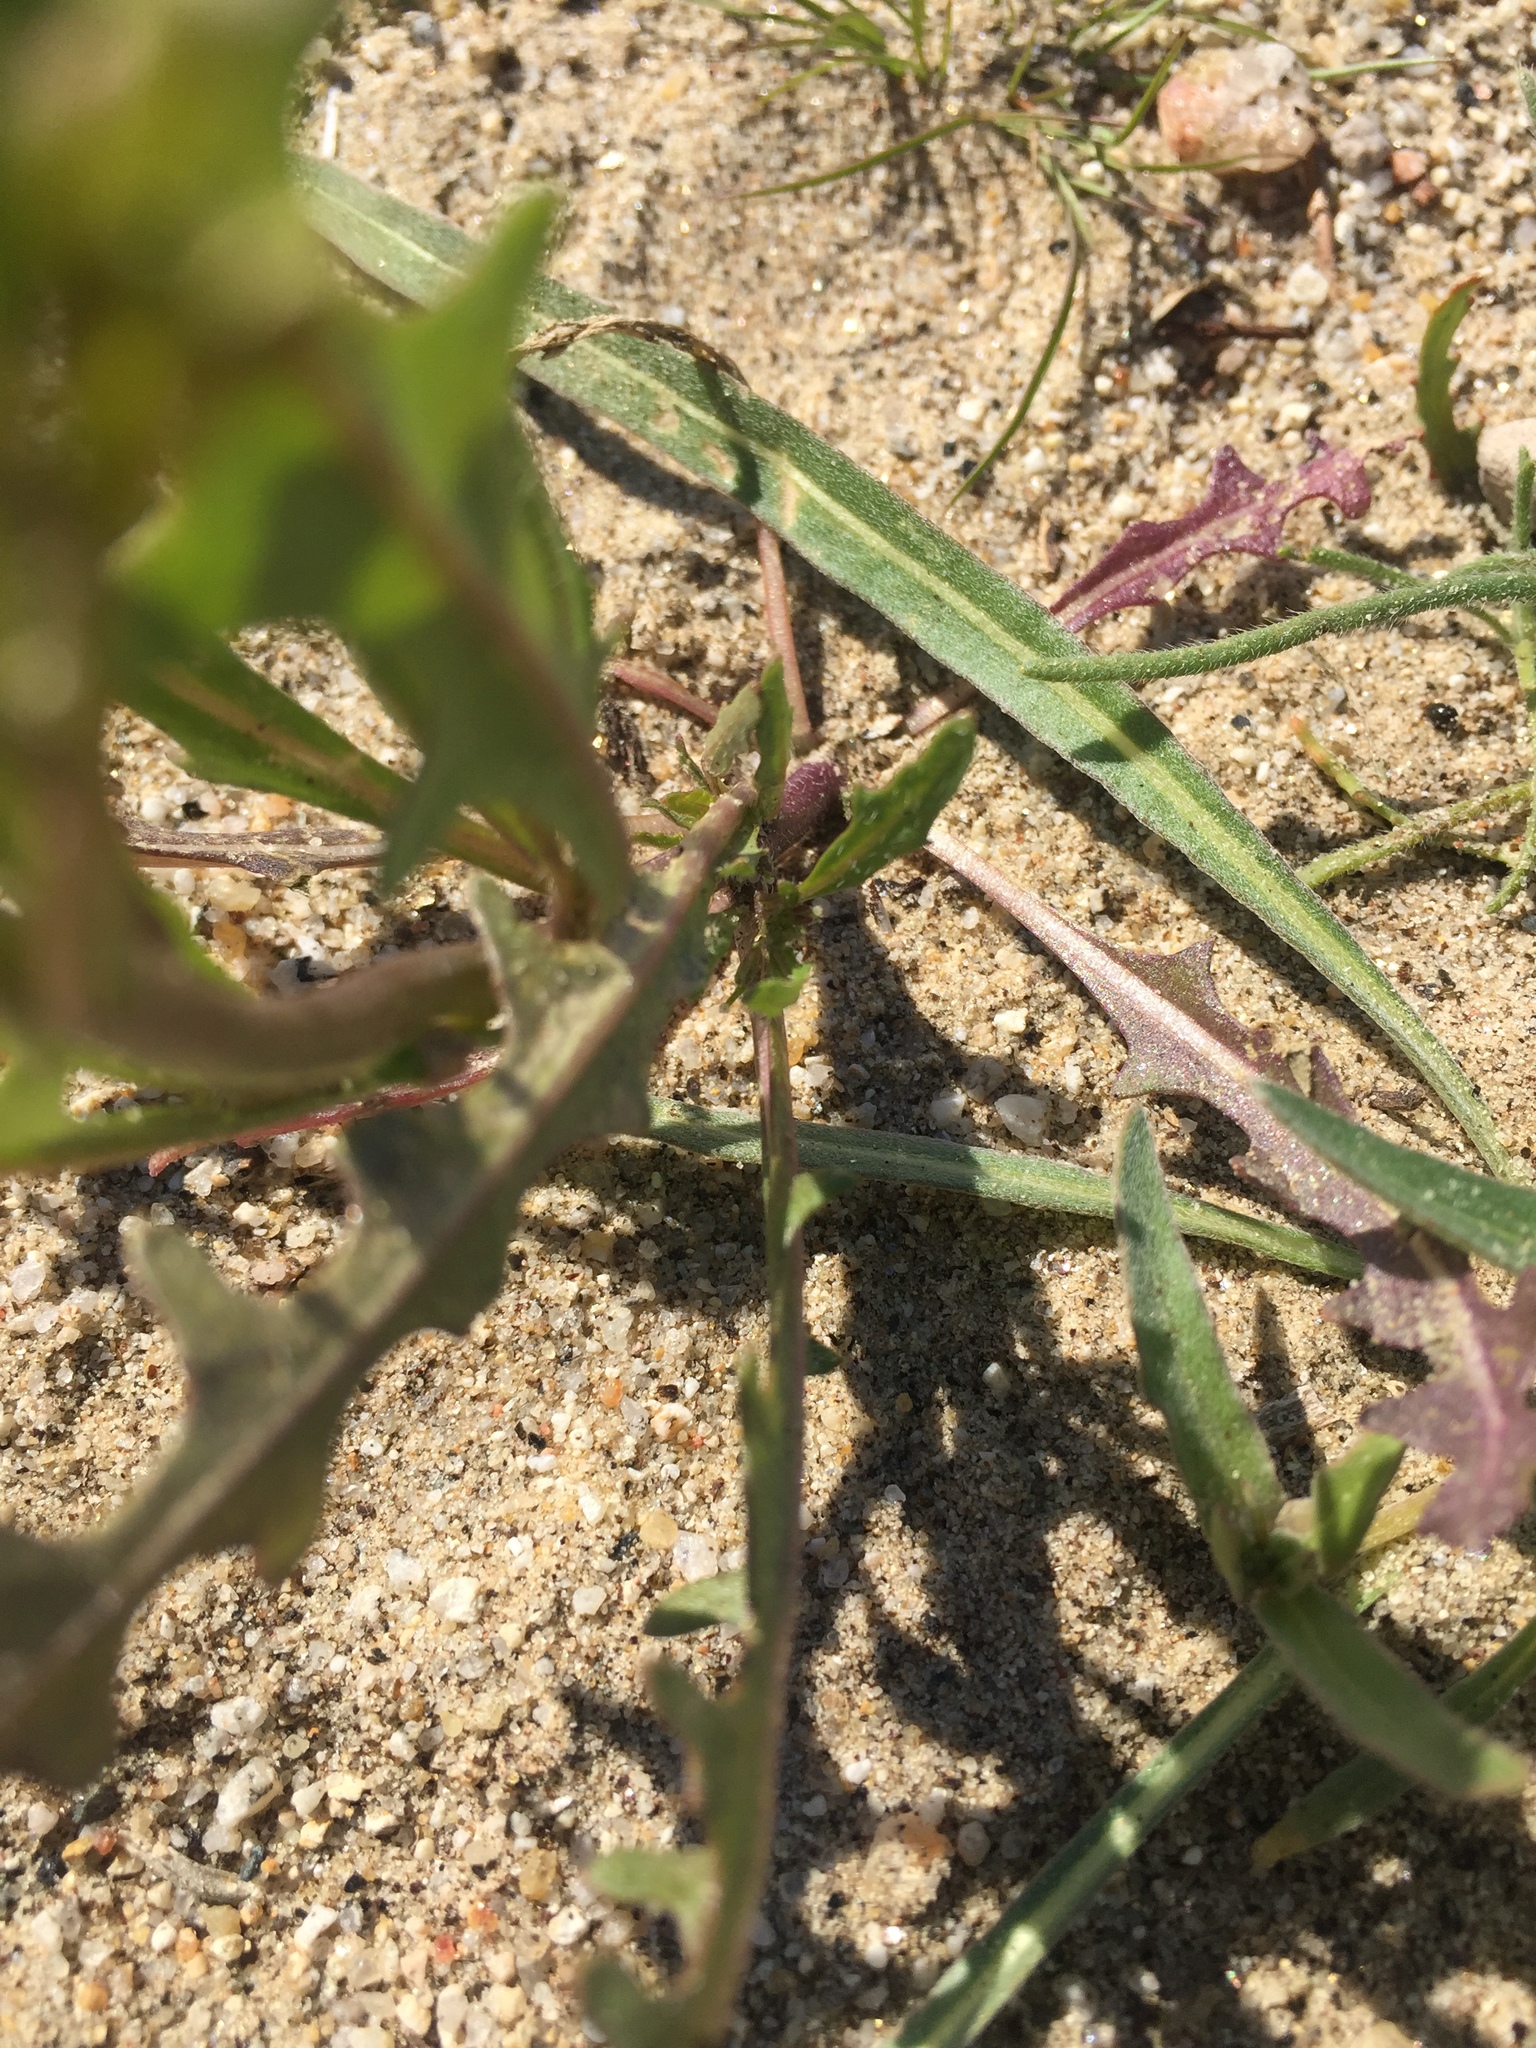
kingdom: Plantae
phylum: Tracheophyta
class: Magnoliopsida
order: Brassicales
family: Brassicaceae
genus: Streptanthus
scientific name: Streptanthus lasiophyllus
